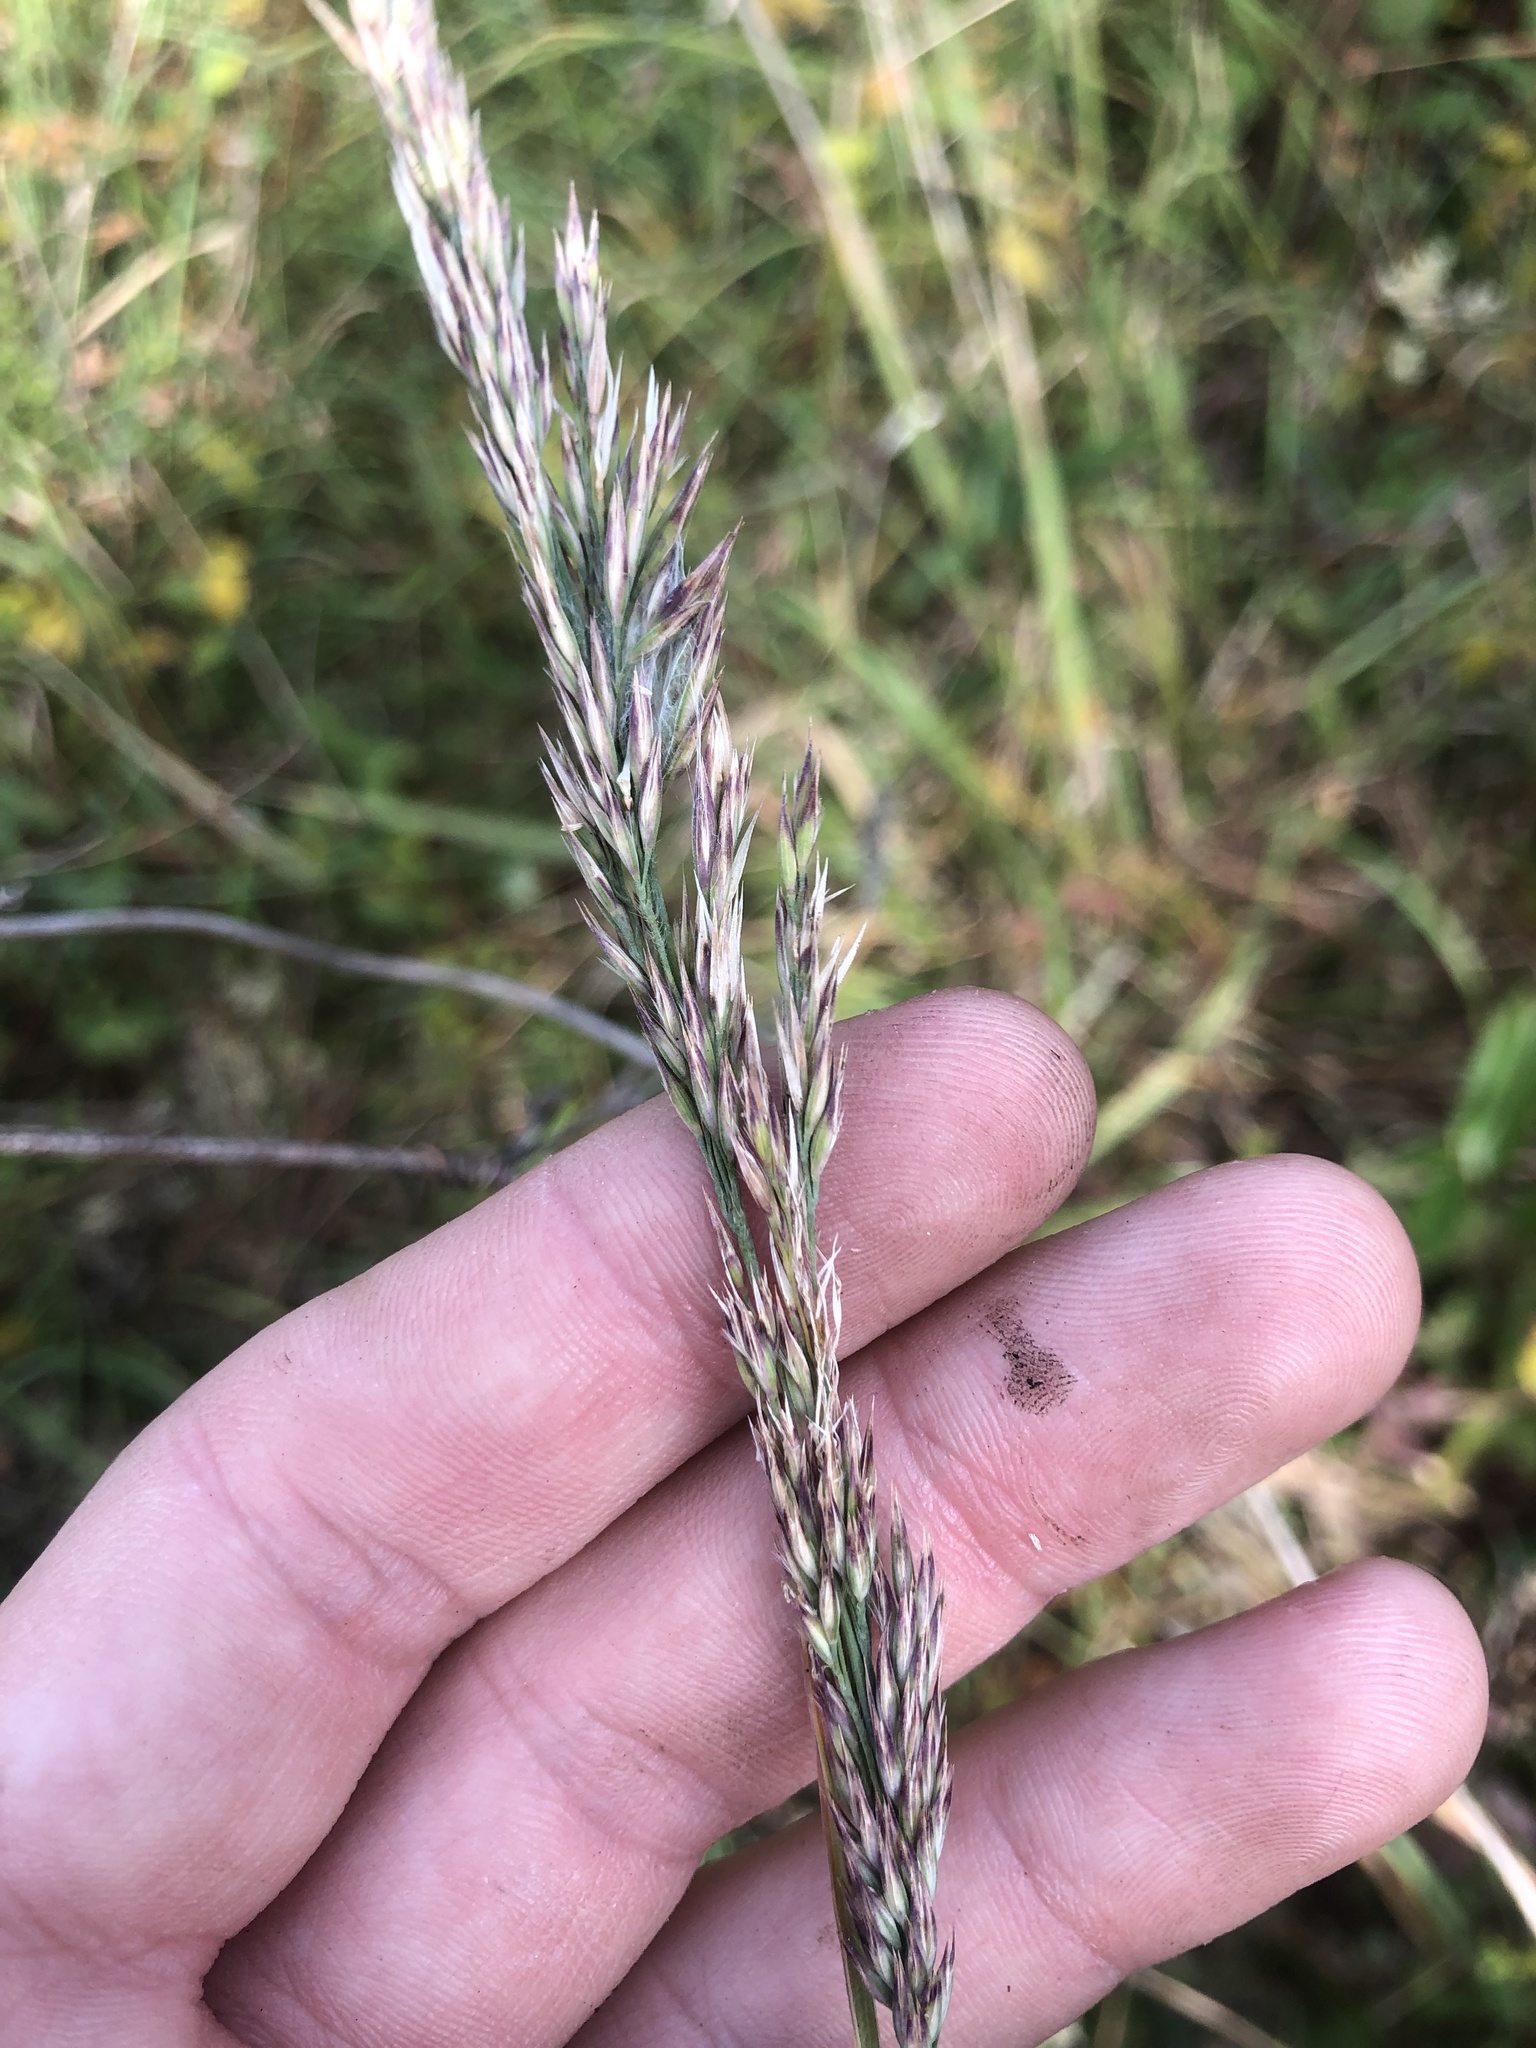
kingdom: Plantae
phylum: Tracheophyta
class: Liliopsida
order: Poales
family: Poaceae
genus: Greeneochloa
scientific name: Greeneochloa coarctata
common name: Small reedgrass
